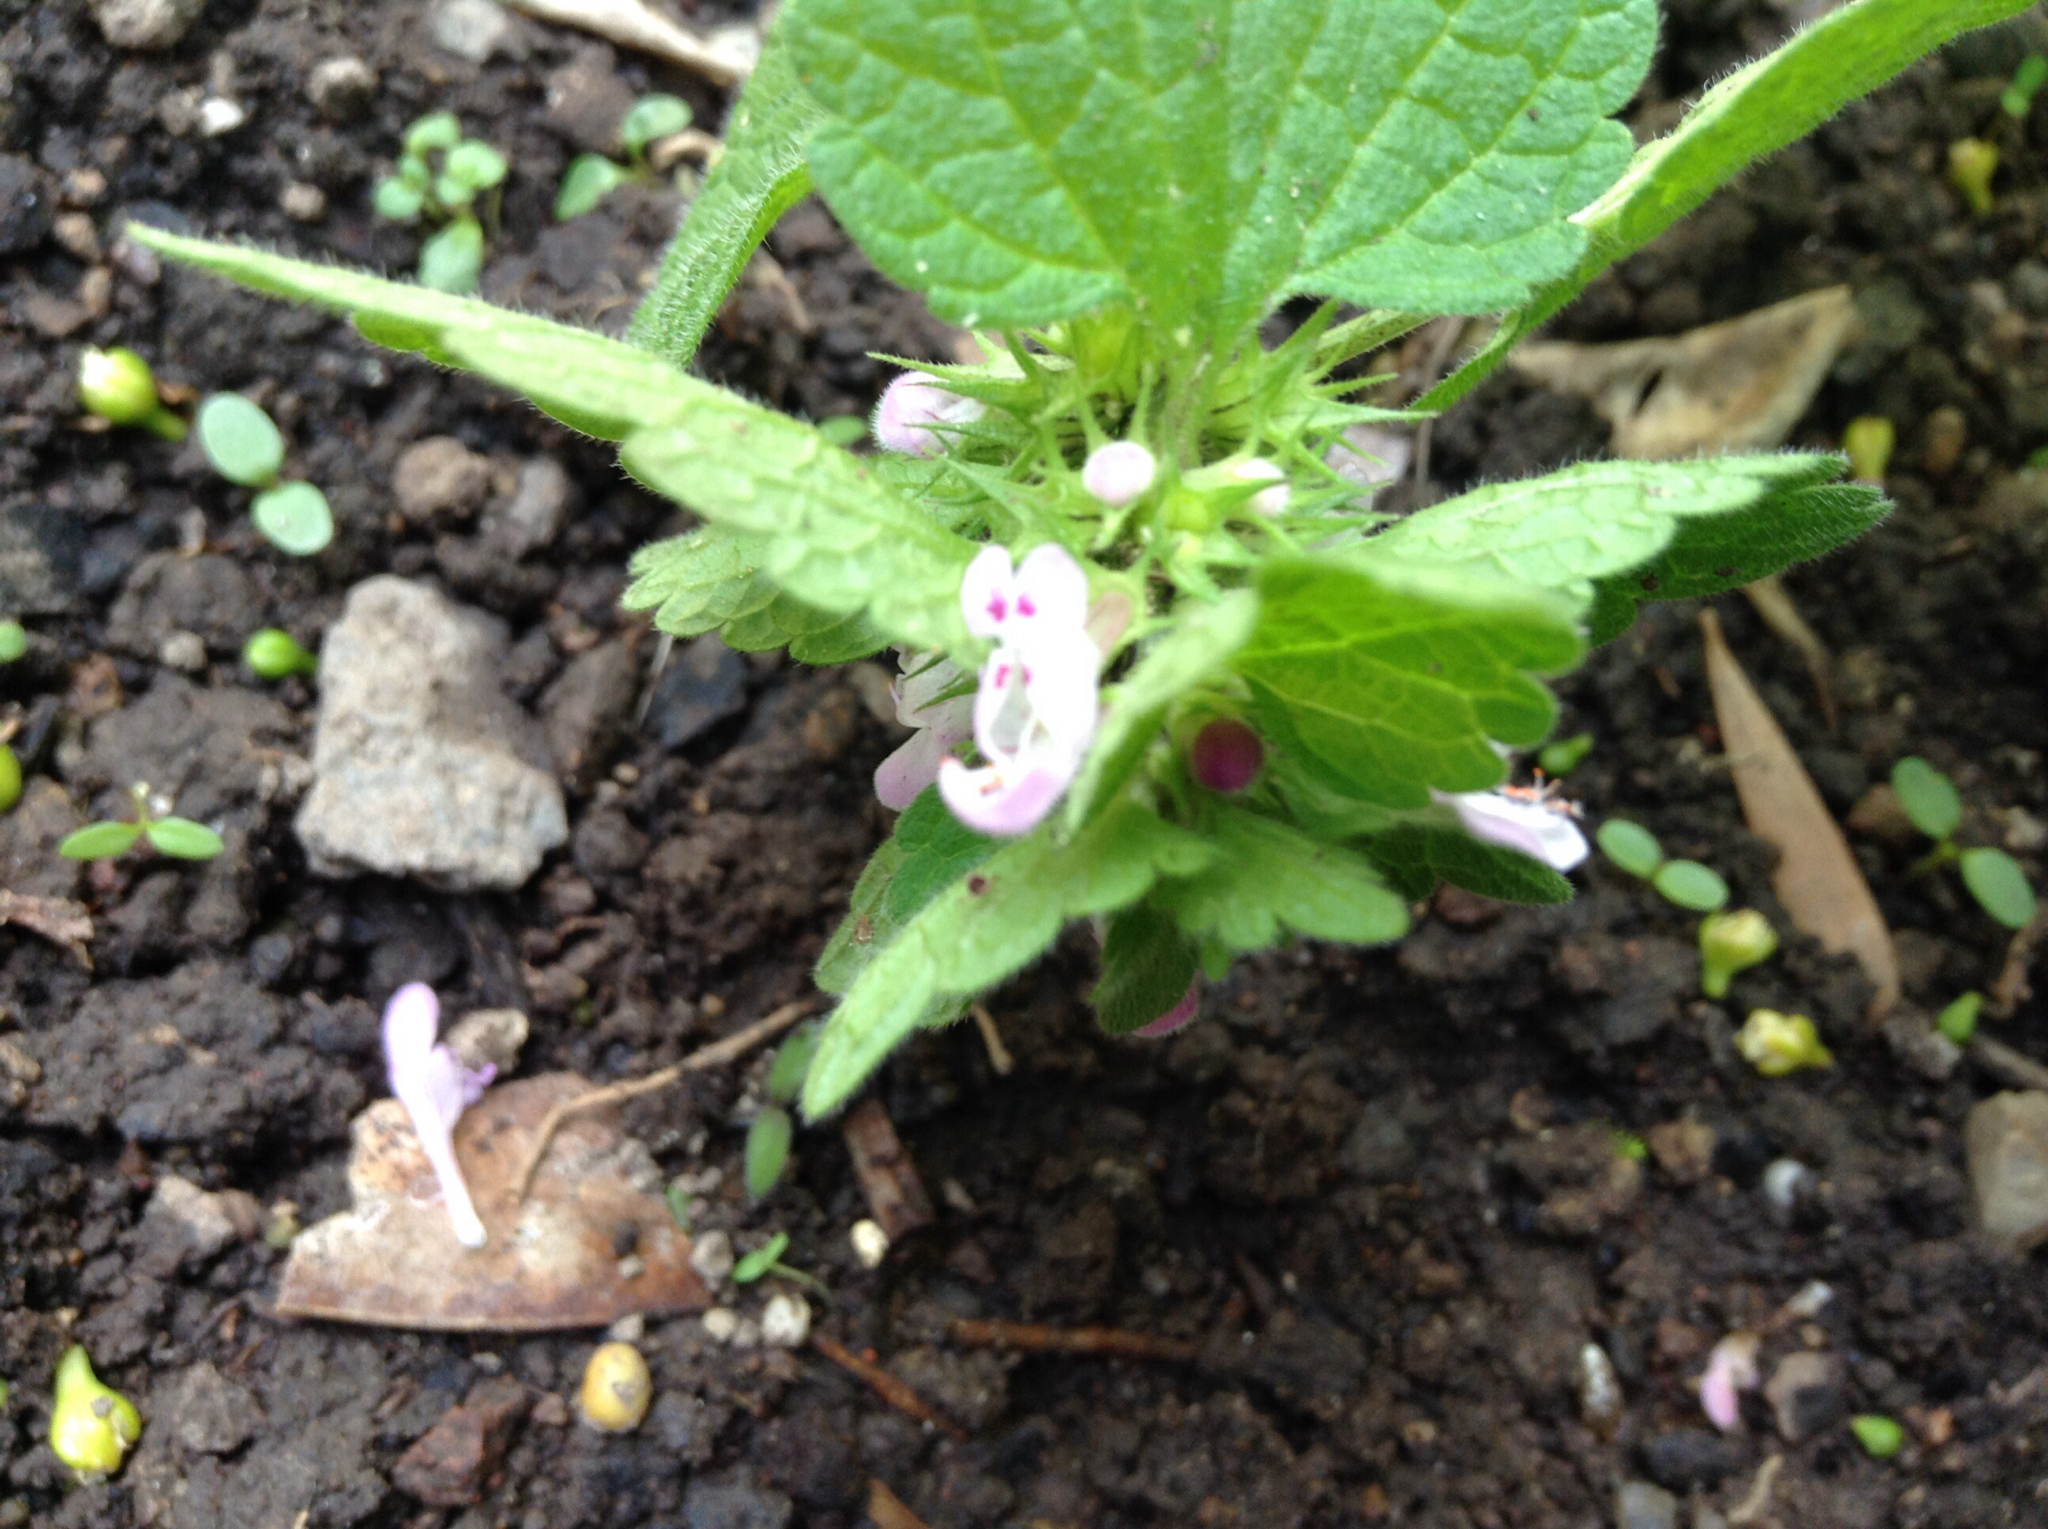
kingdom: Plantae
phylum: Tracheophyta
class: Magnoliopsida
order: Lamiales
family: Lamiaceae
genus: Lamium
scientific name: Lamium purpureum
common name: Red dead-nettle
